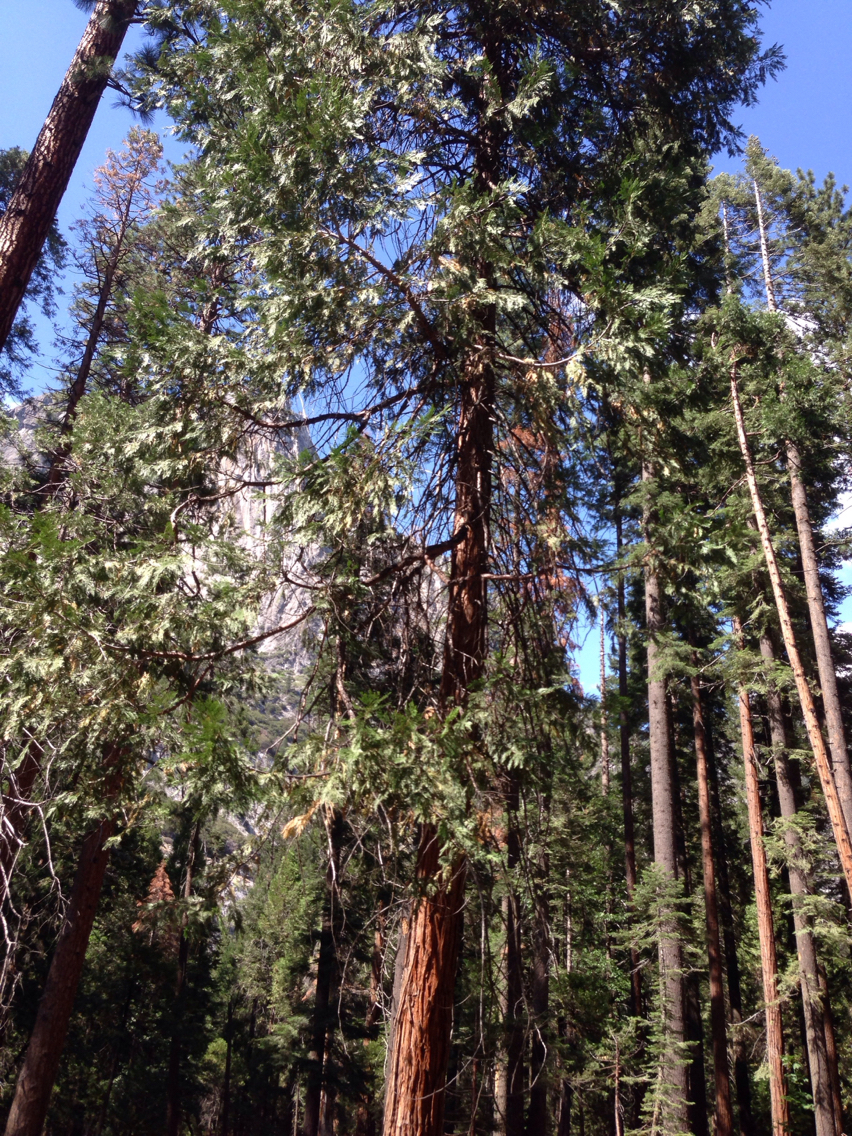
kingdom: Plantae
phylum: Tracheophyta
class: Pinopsida
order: Pinales
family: Cupressaceae
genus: Calocedrus
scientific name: Calocedrus decurrens
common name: Californian incense-cedar
